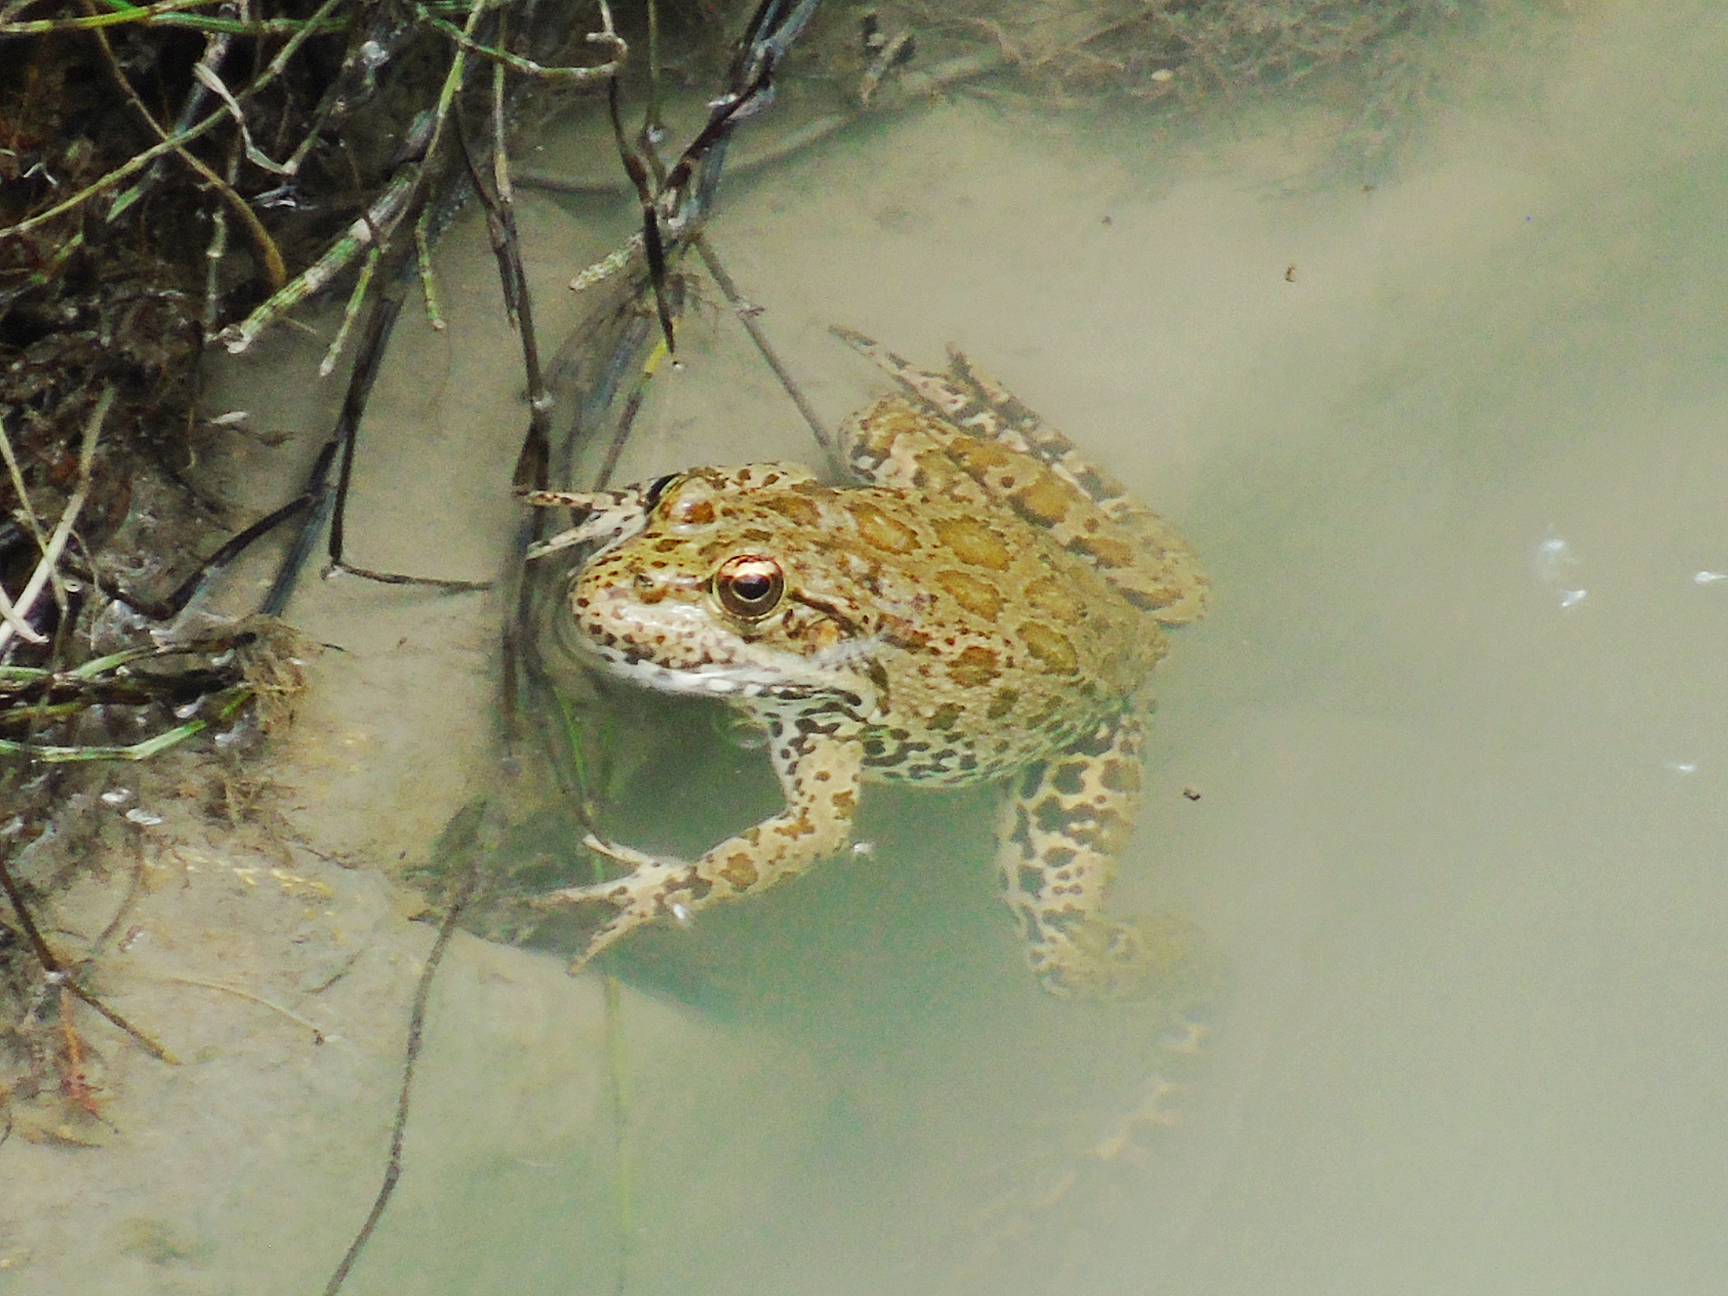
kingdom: Animalia
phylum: Chordata
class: Amphibia
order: Anura
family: Ranidae
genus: Pelophylax
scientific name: Pelophylax ridibundus
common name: Marsh frog
